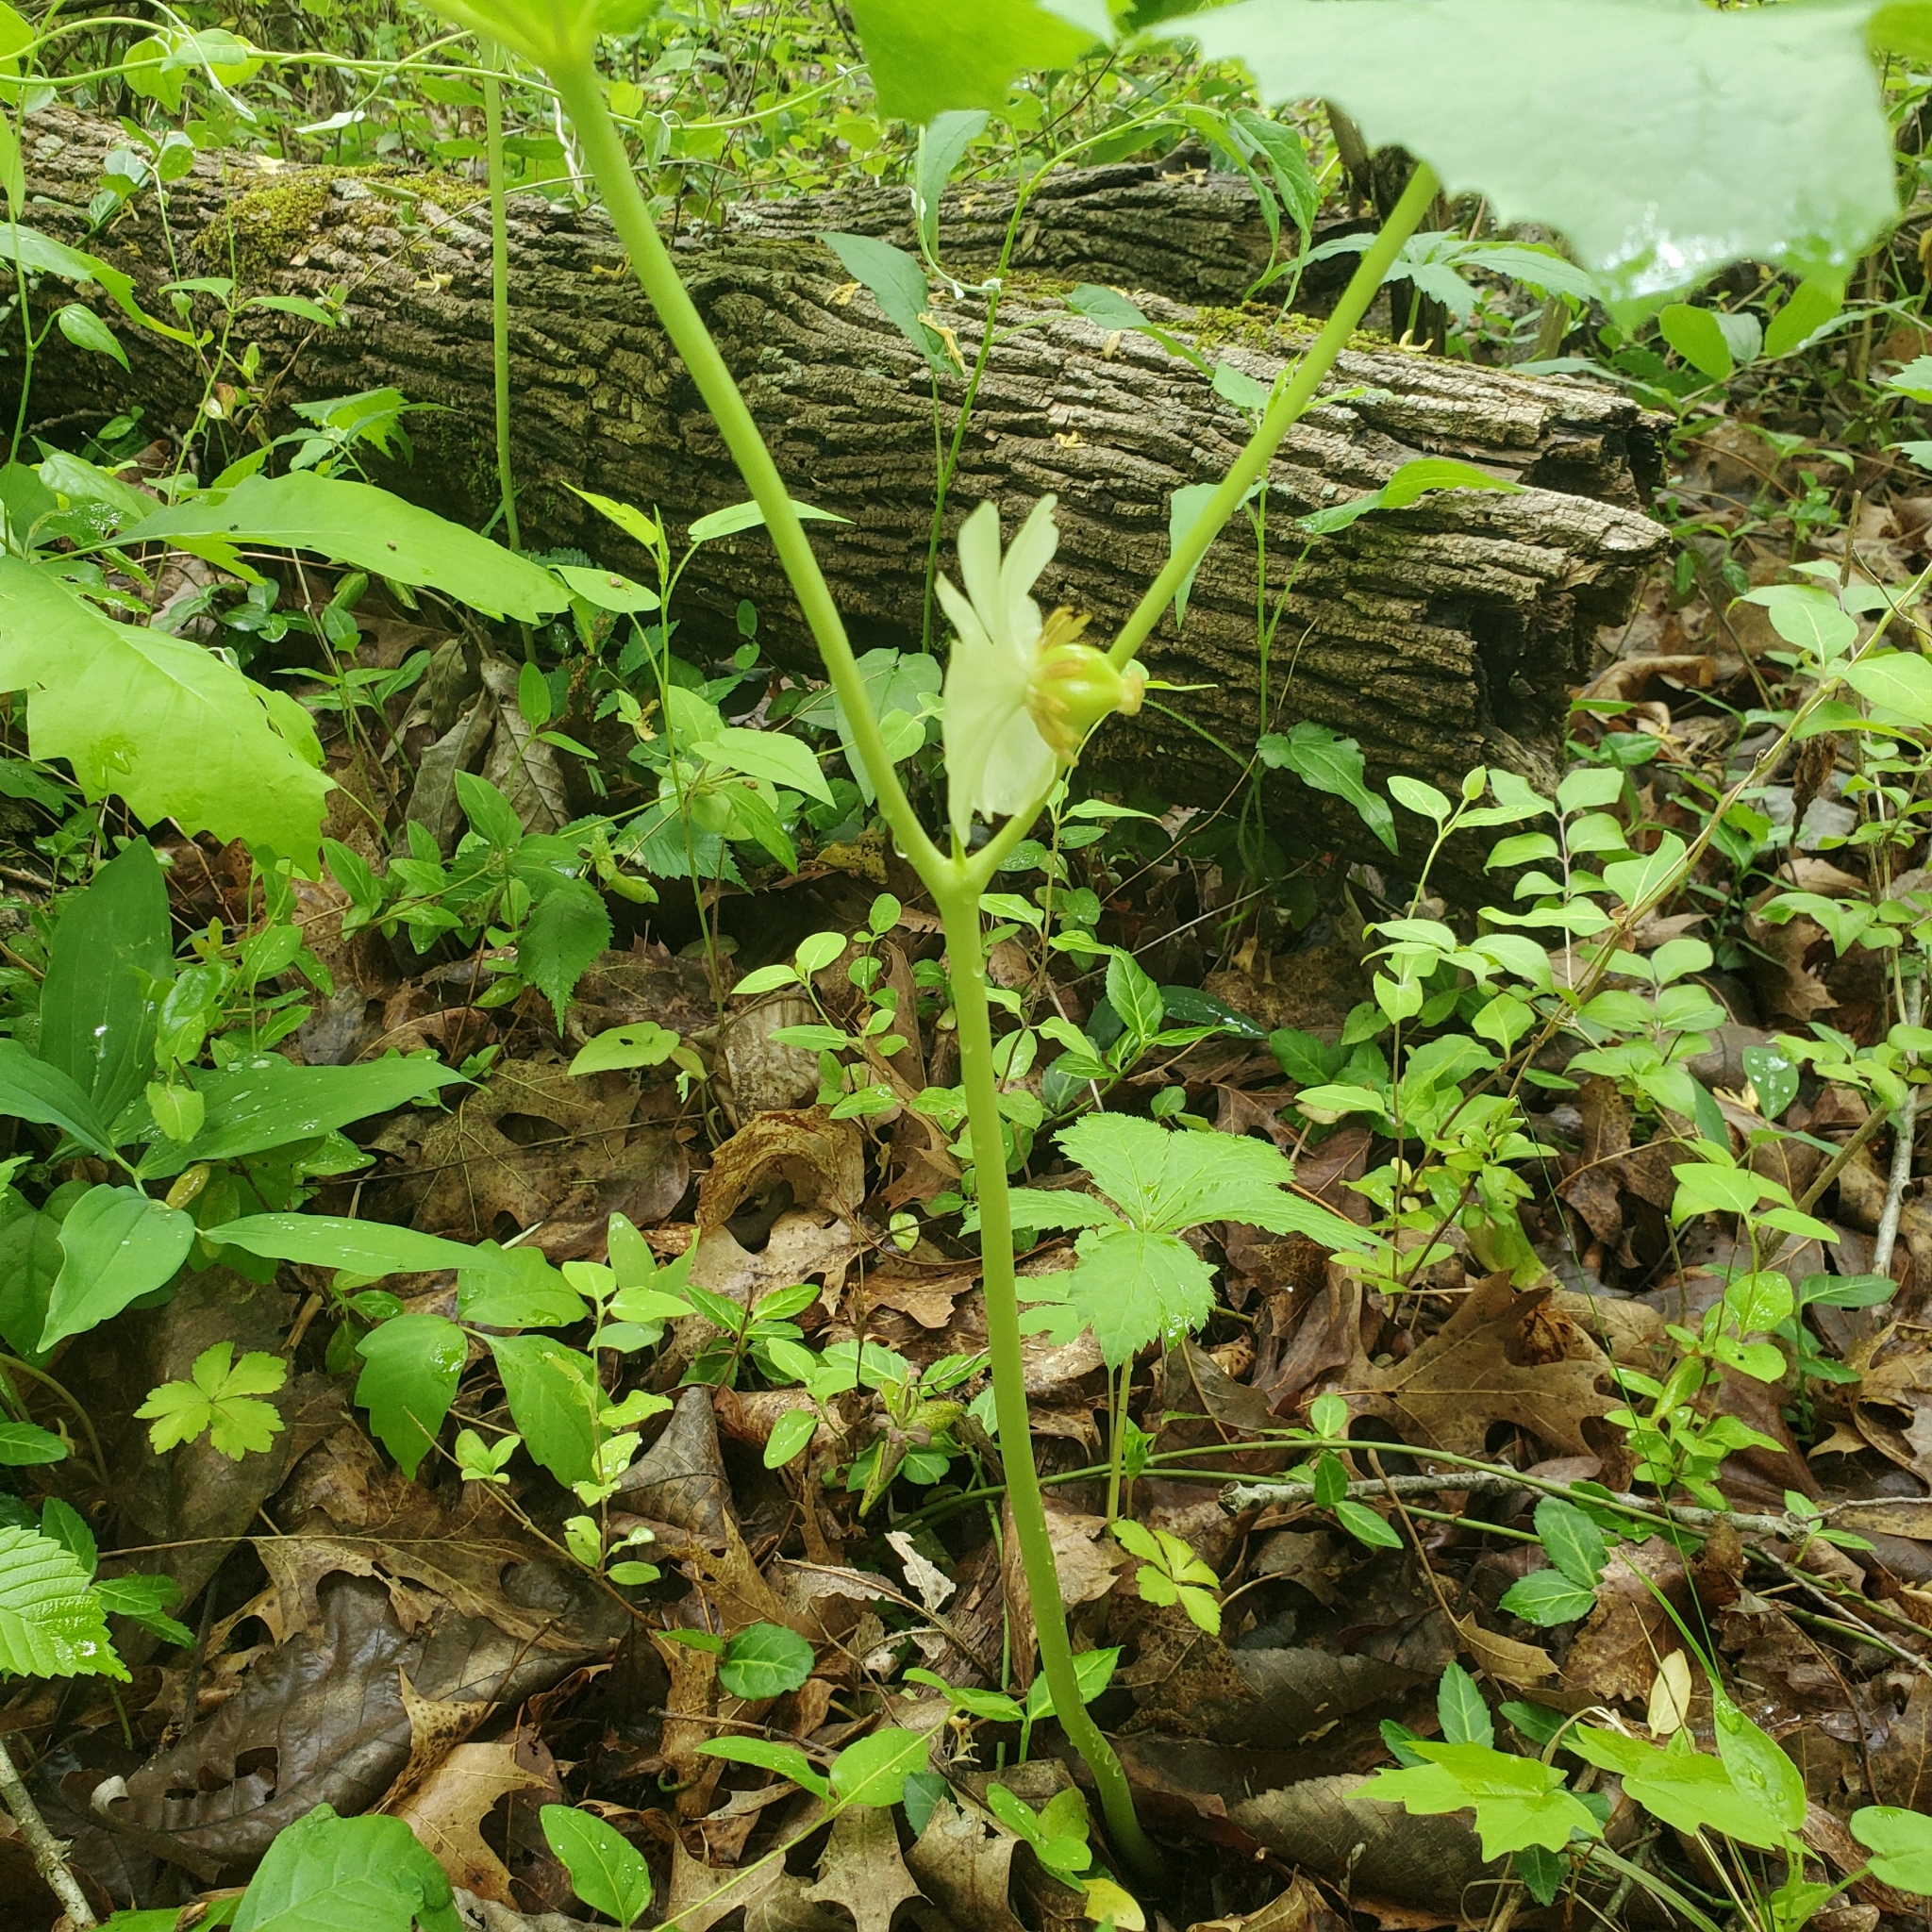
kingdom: Plantae
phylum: Tracheophyta
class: Magnoliopsida
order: Ranunculales
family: Berberidaceae
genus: Podophyllum
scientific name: Podophyllum peltatum
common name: Wild mandrake
